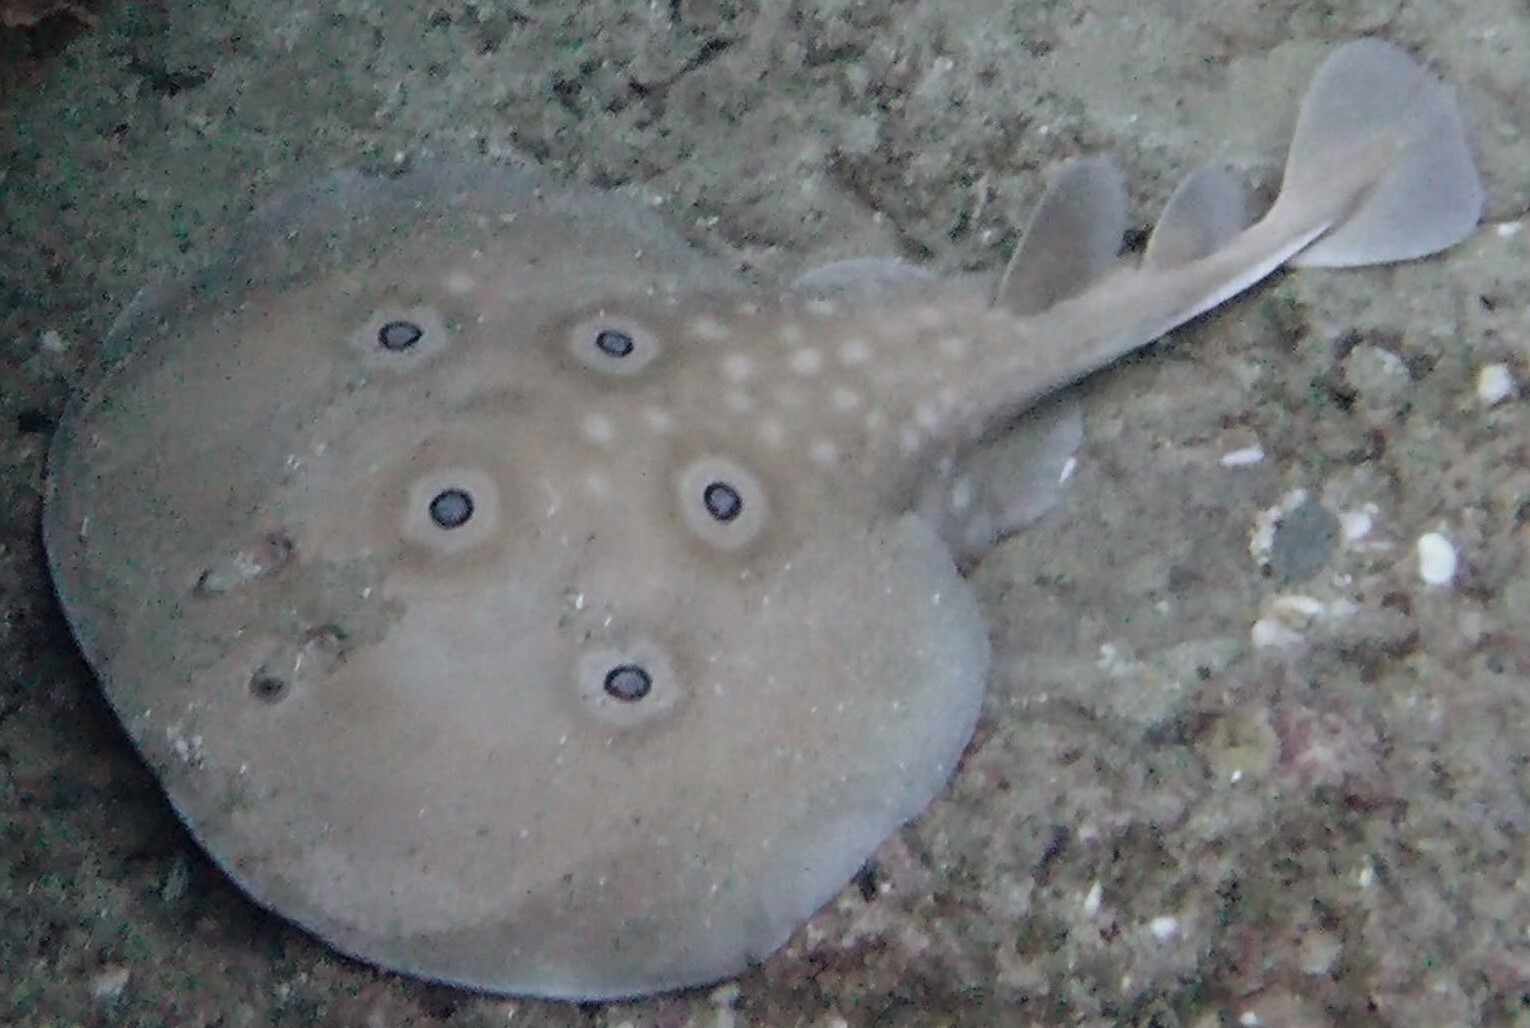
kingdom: Animalia
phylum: Chordata
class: Elasmobranchii
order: Torpediniformes
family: Torpedinidae
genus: Torpedo
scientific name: Torpedo torpedo
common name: Common torpedo
